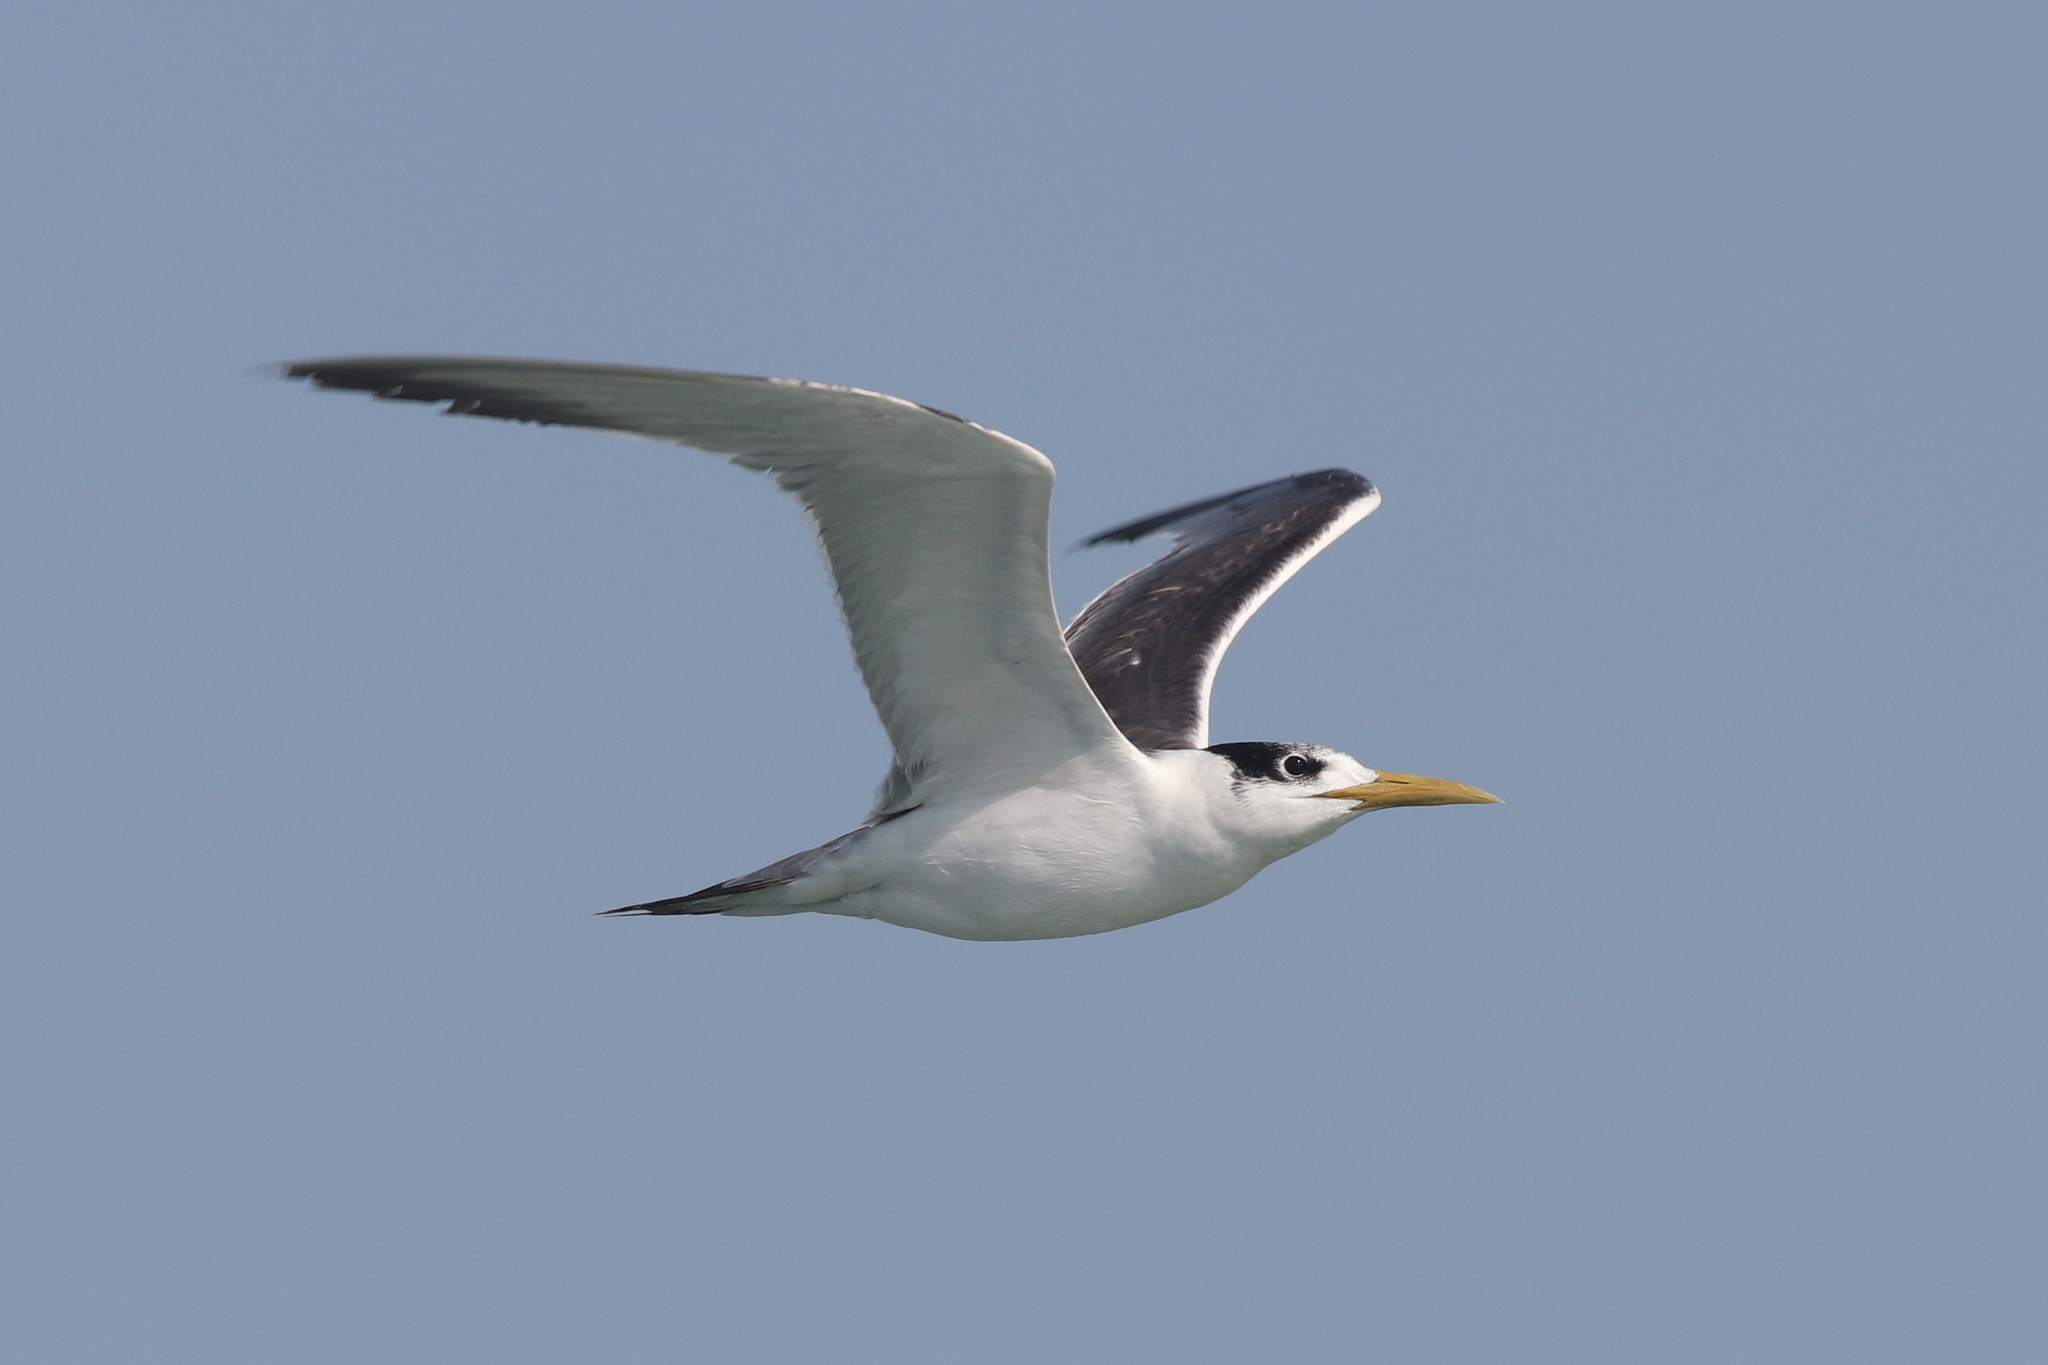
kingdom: Animalia
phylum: Chordata
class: Aves
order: Charadriiformes
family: Laridae
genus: Thalasseus
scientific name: Thalasseus bergii
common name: Greater crested tern
